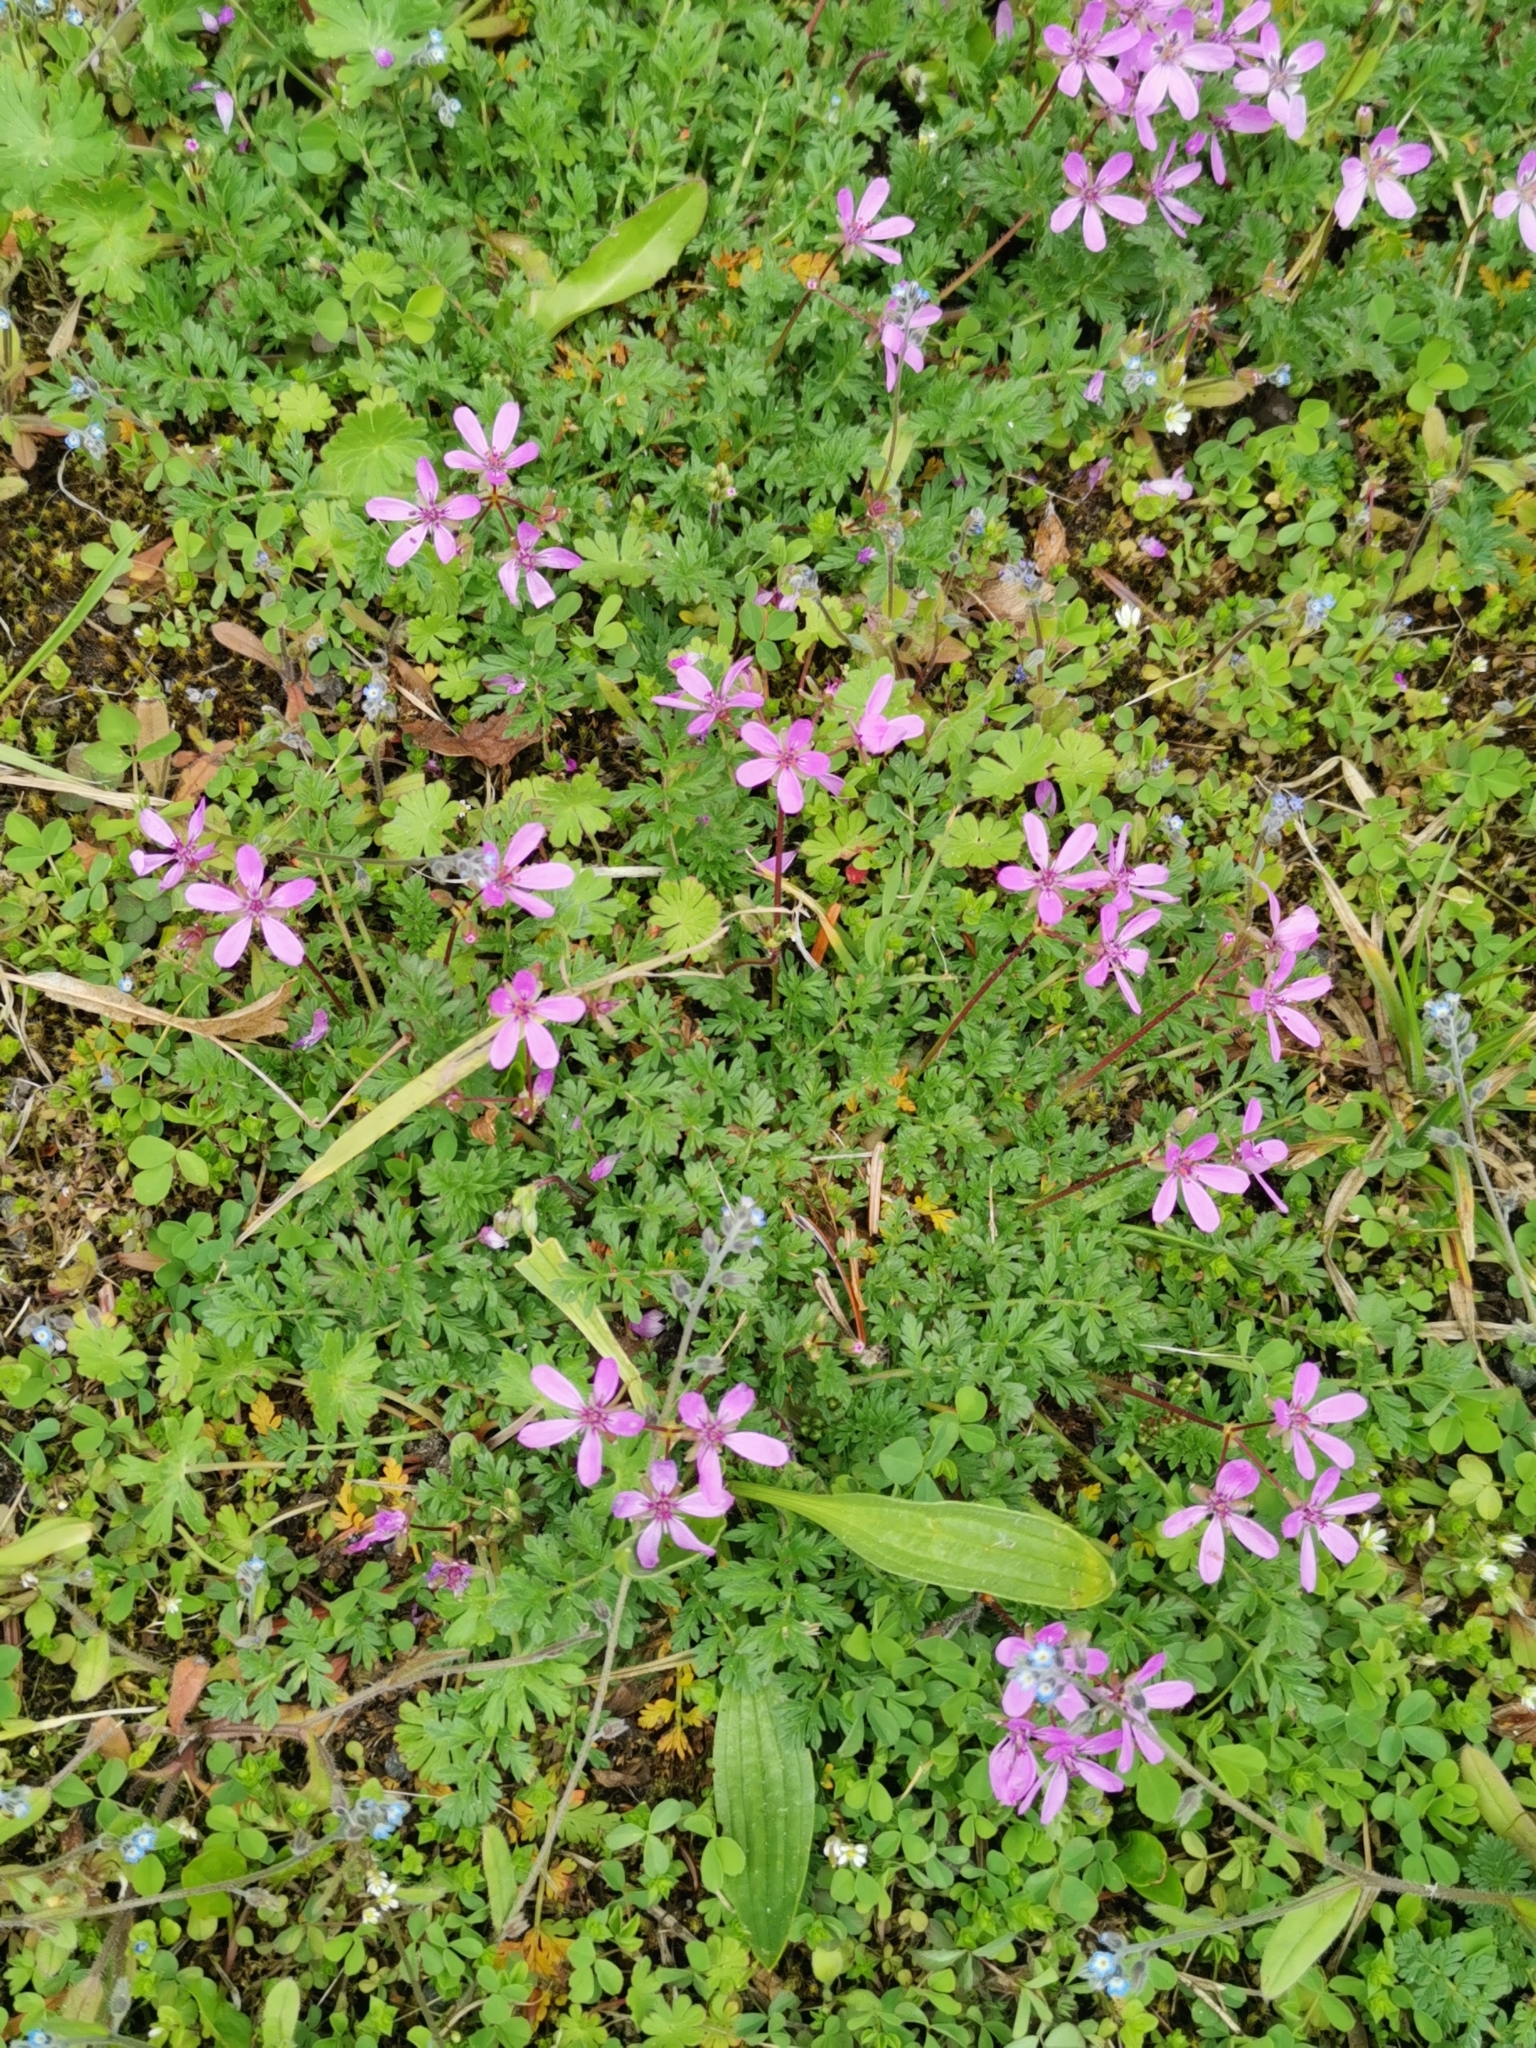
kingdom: Plantae
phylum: Tracheophyta
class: Magnoliopsida
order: Geraniales
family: Geraniaceae
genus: Erodium
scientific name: Erodium cicutarium
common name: Common stork's-bill
